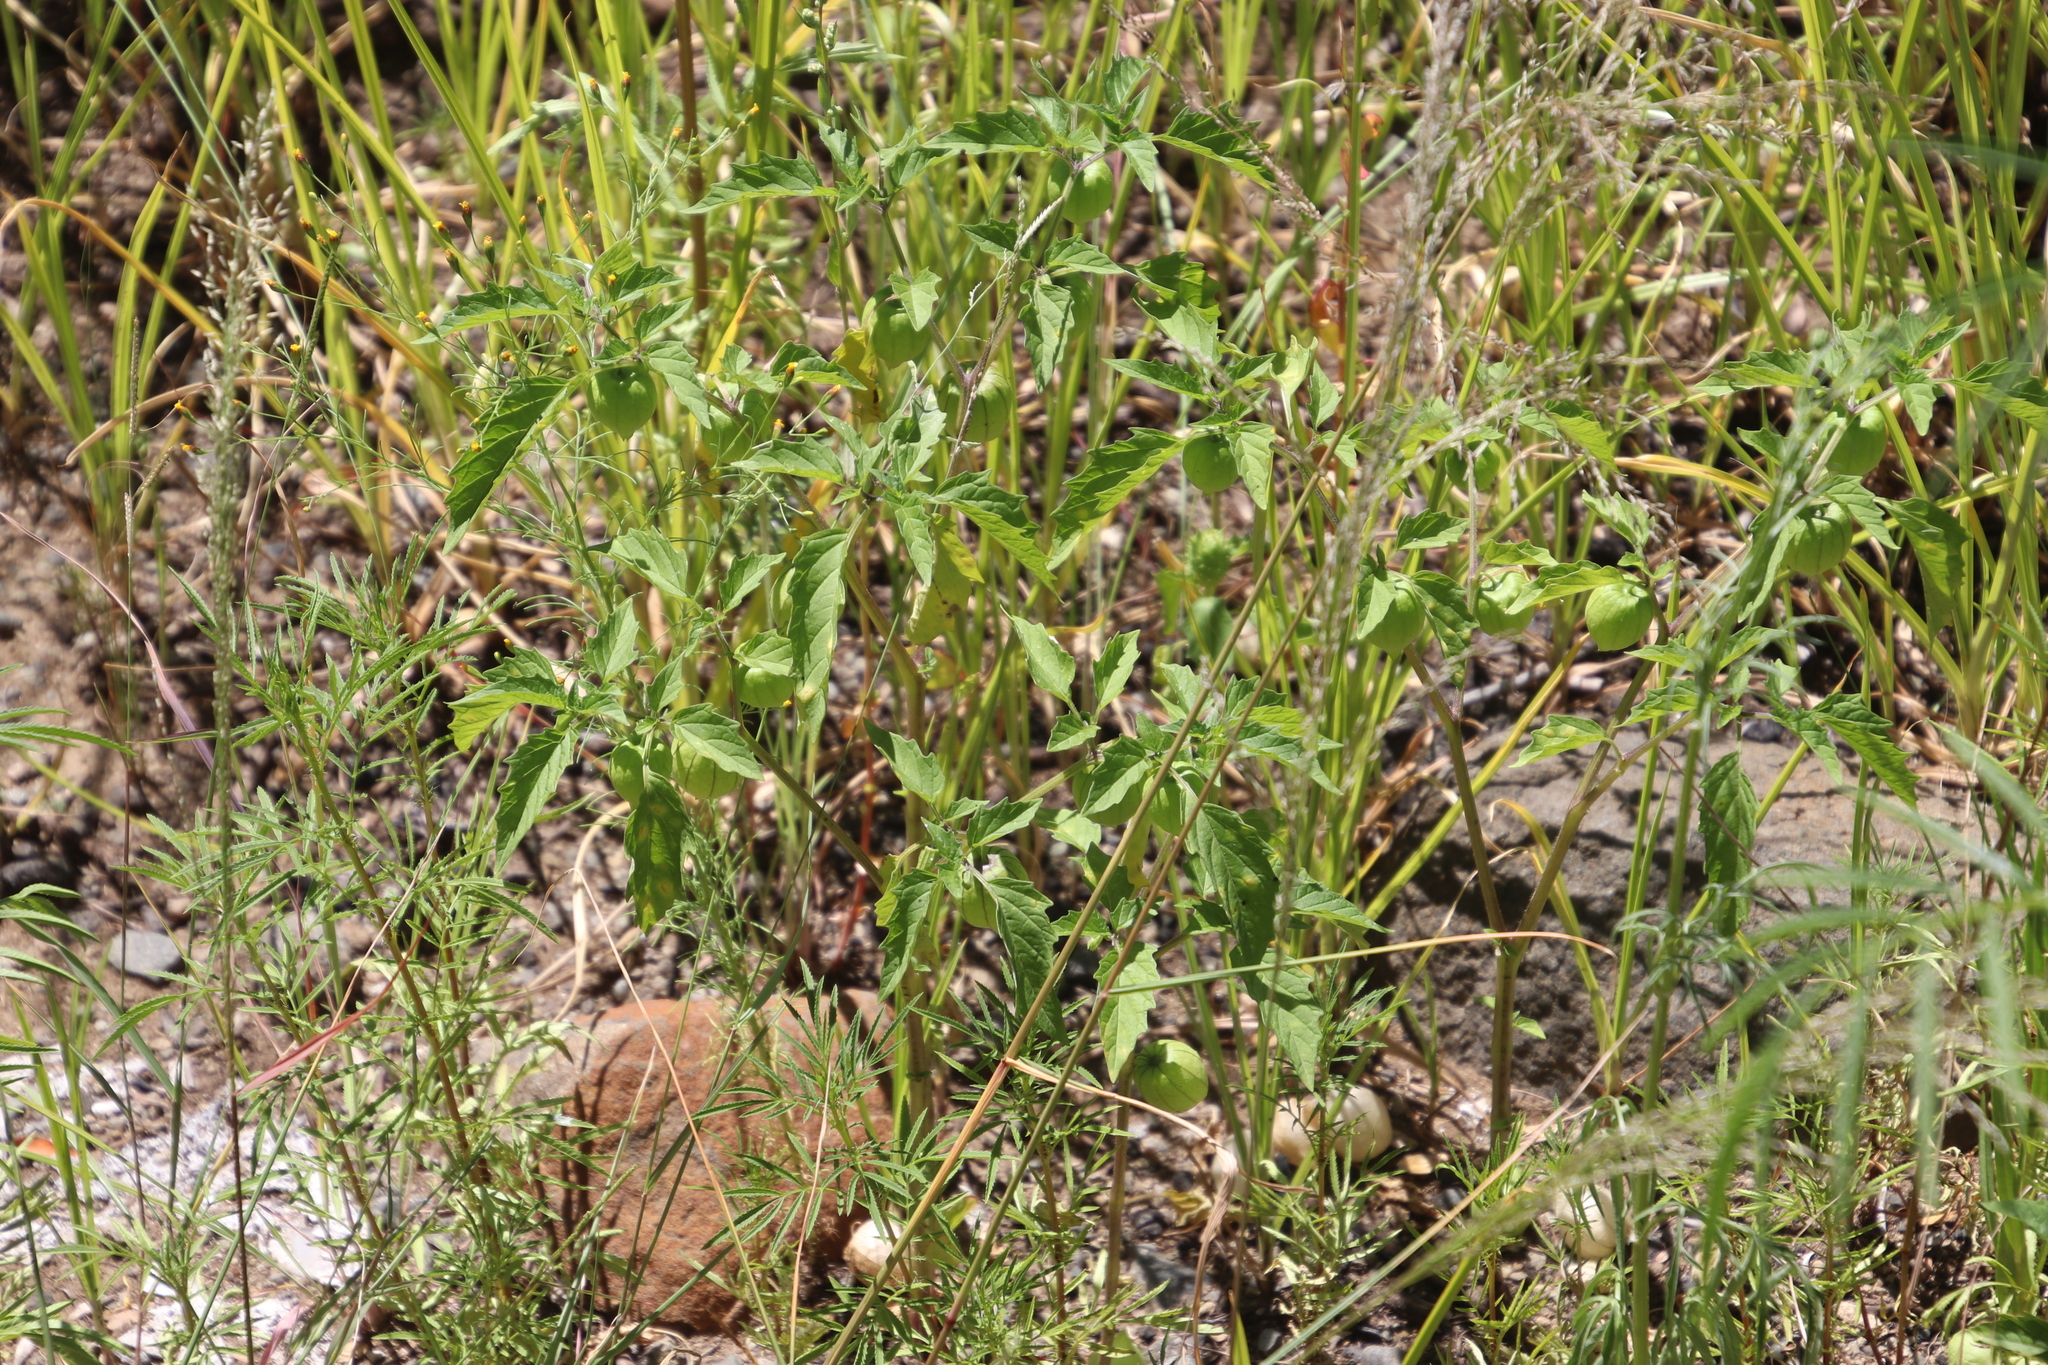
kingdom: Plantae
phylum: Tracheophyta
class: Magnoliopsida
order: Solanales
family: Solanaceae
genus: Physalis
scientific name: Physalis angulata
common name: Angular winter-cherry
